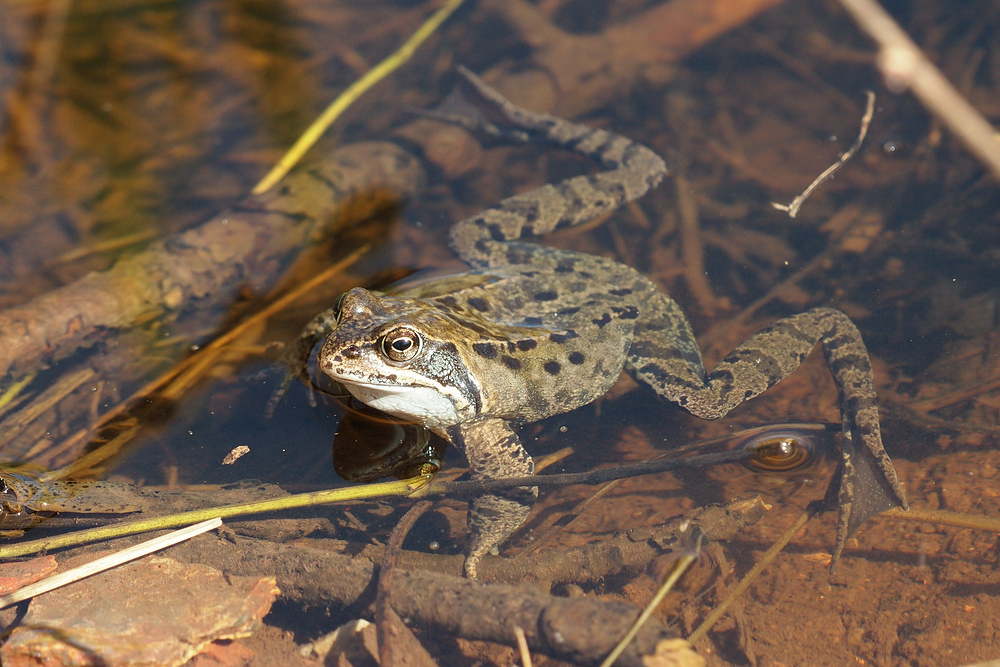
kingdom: Animalia
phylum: Chordata
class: Amphibia
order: Anura
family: Ranidae
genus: Rana
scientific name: Rana temporaria
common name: Common frog
